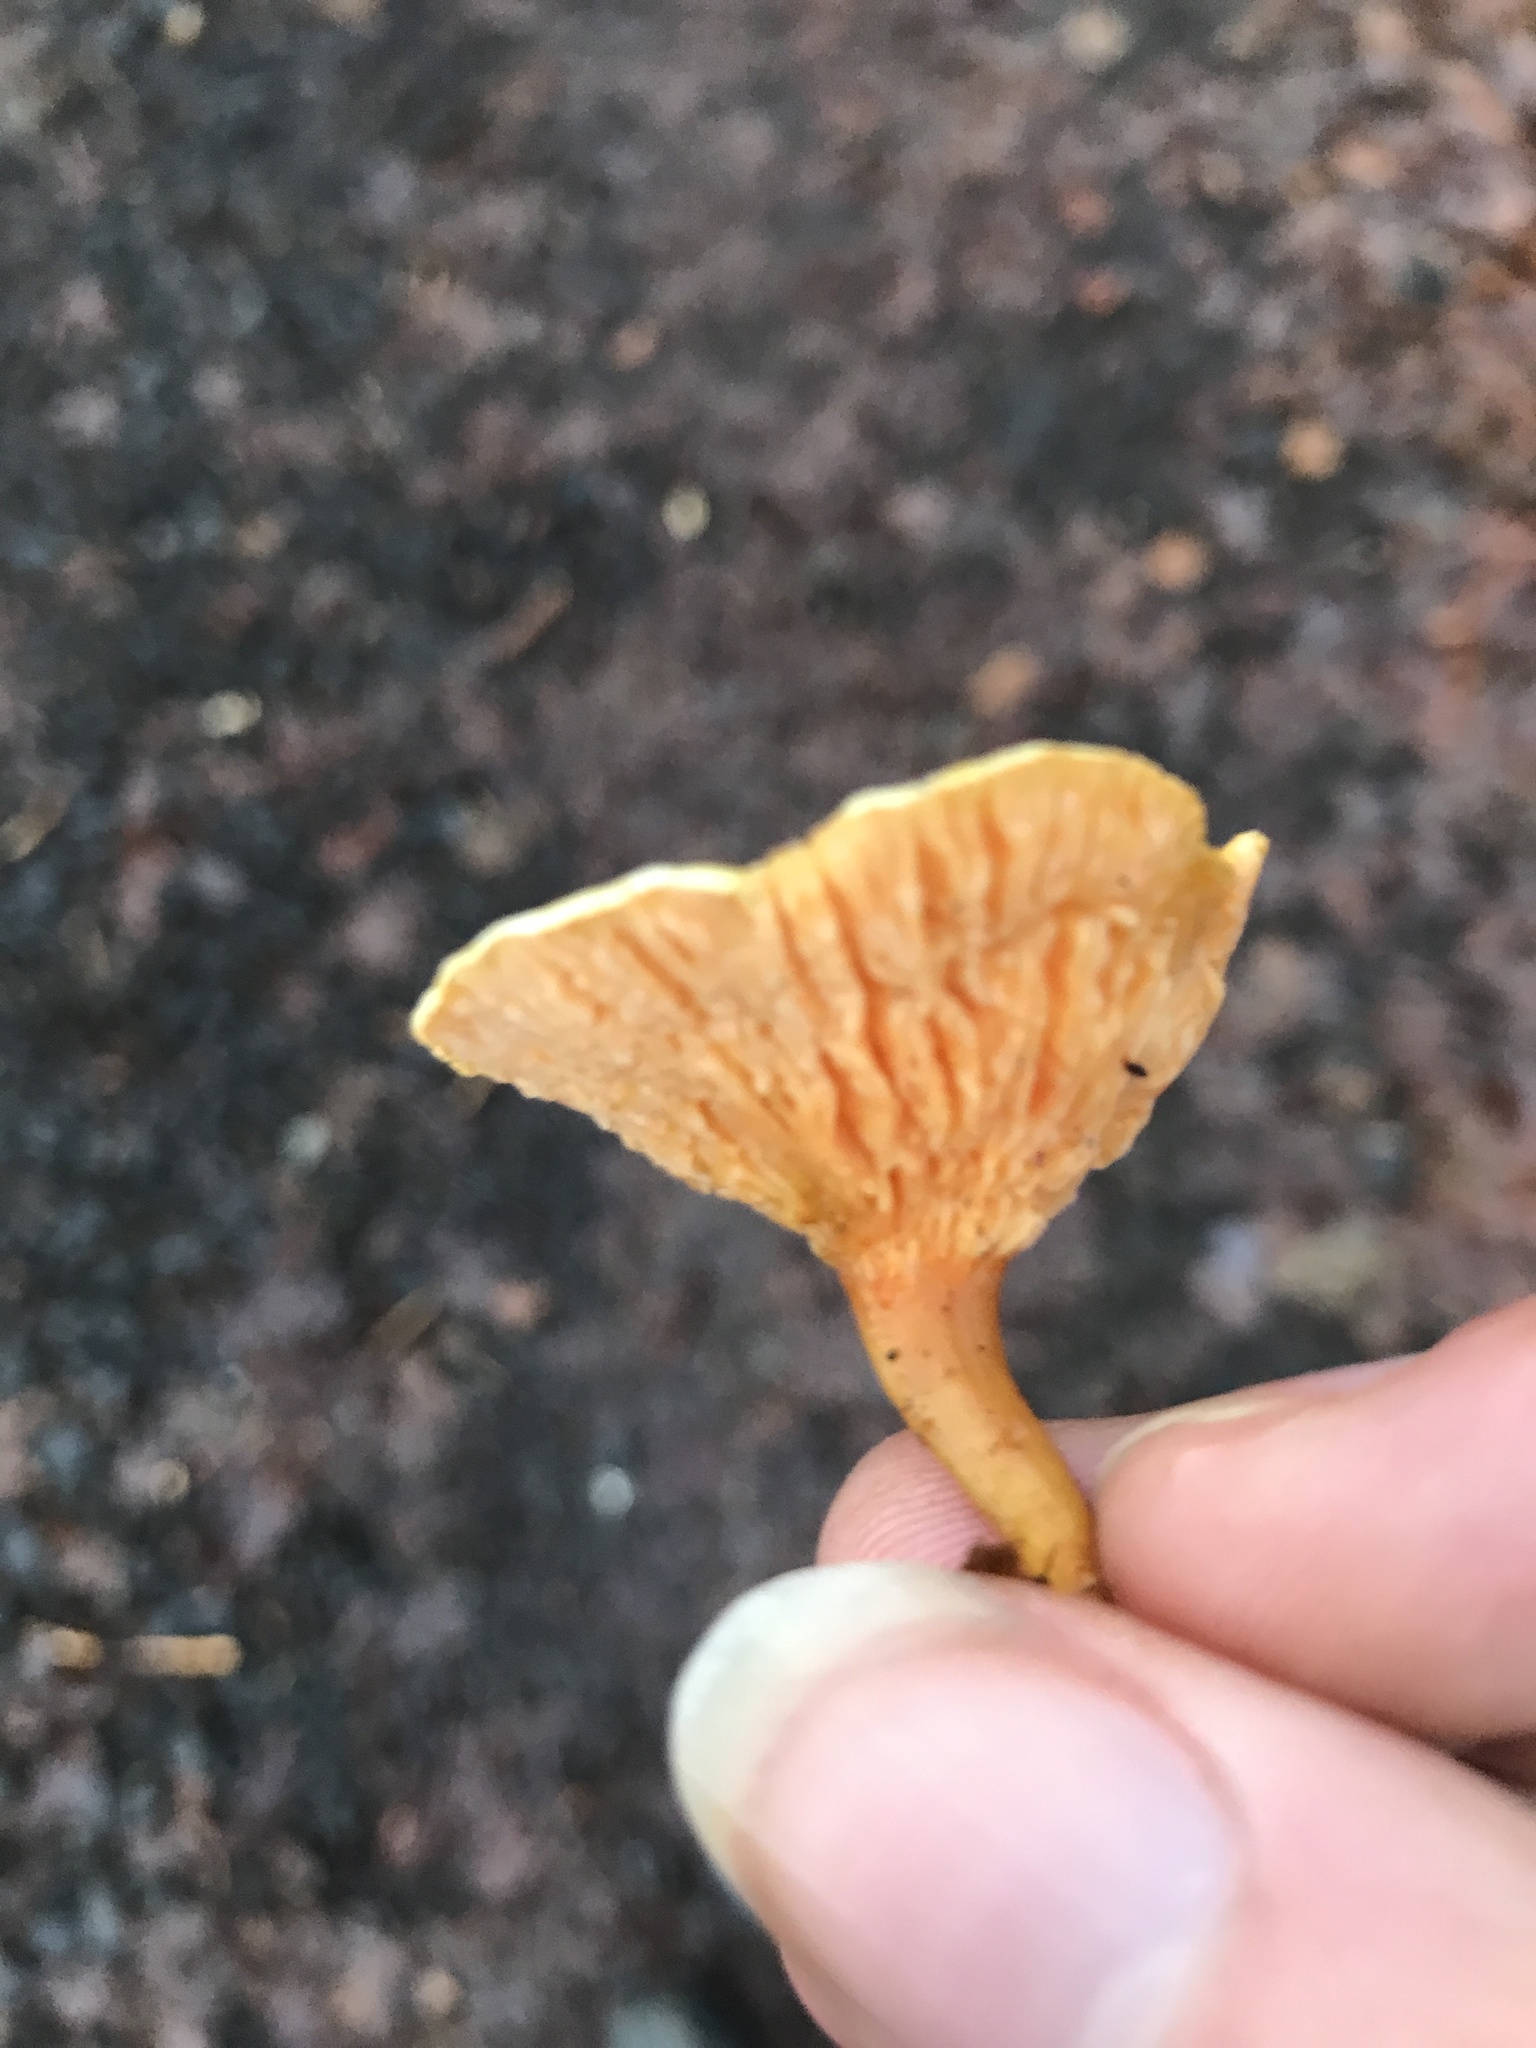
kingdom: Fungi
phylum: Basidiomycota
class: Agaricomycetes
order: Boletales
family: Hygrophoropsidaceae
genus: Hygrophoropsis
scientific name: Hygrophoropsis aurantiaca
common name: False chanterelle
